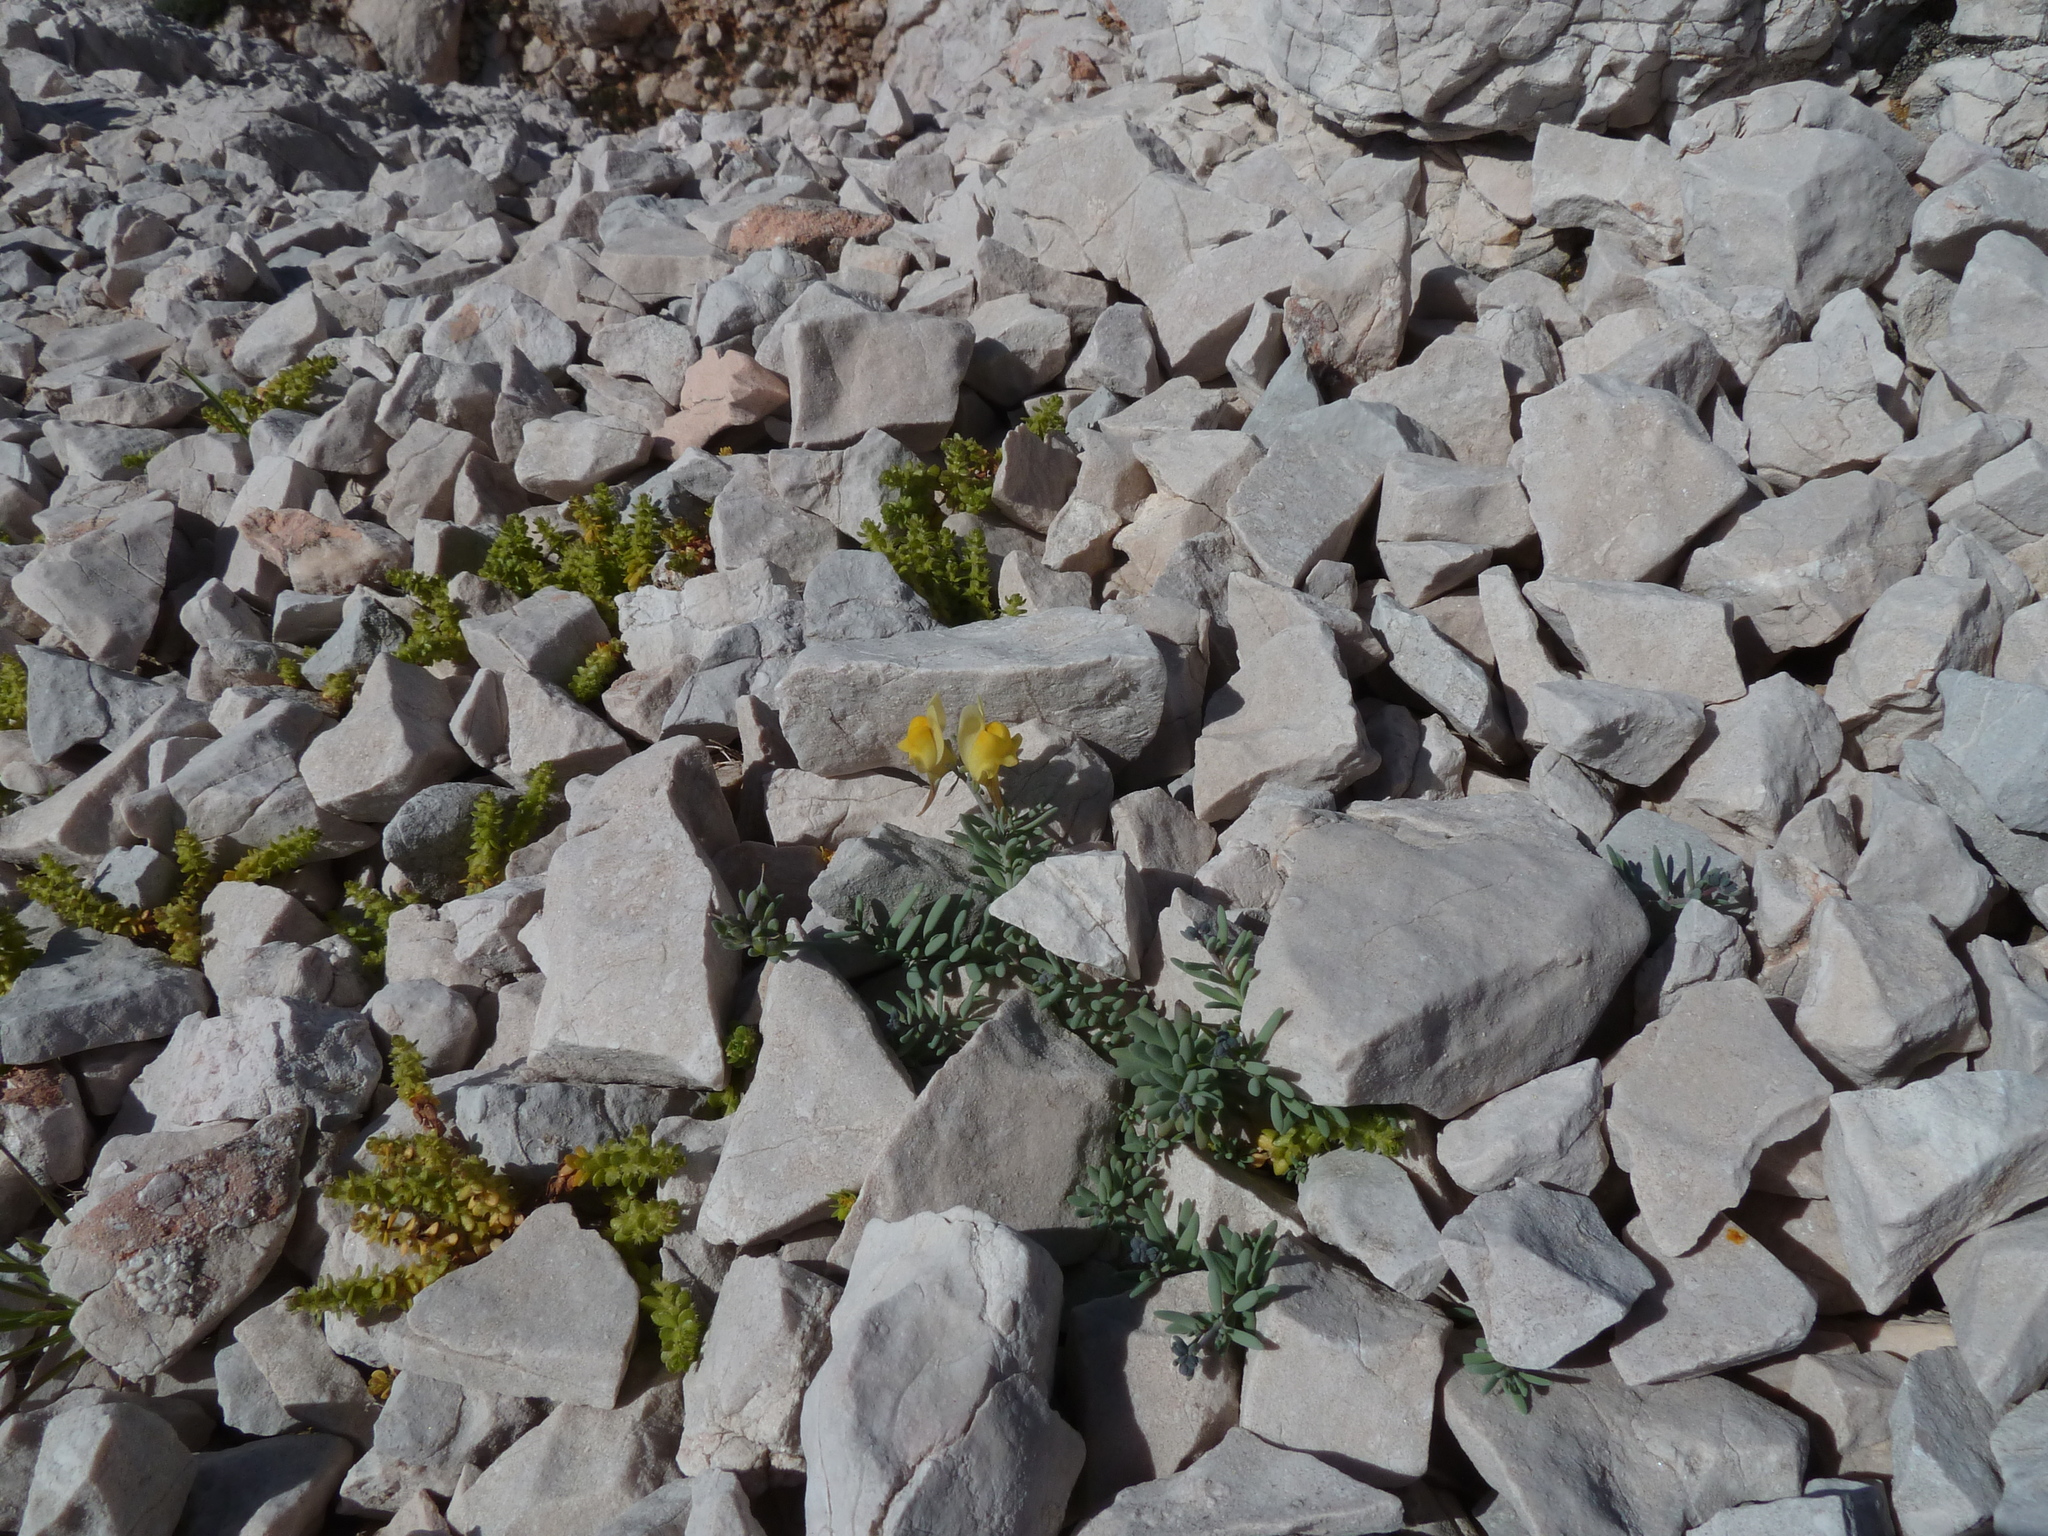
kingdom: Plantae
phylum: Tracheophyta
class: Magnoliopsida
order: Lamiales
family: Plantaginaceae
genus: Linaria
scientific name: Linaria supina
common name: Prostrate toadflax
